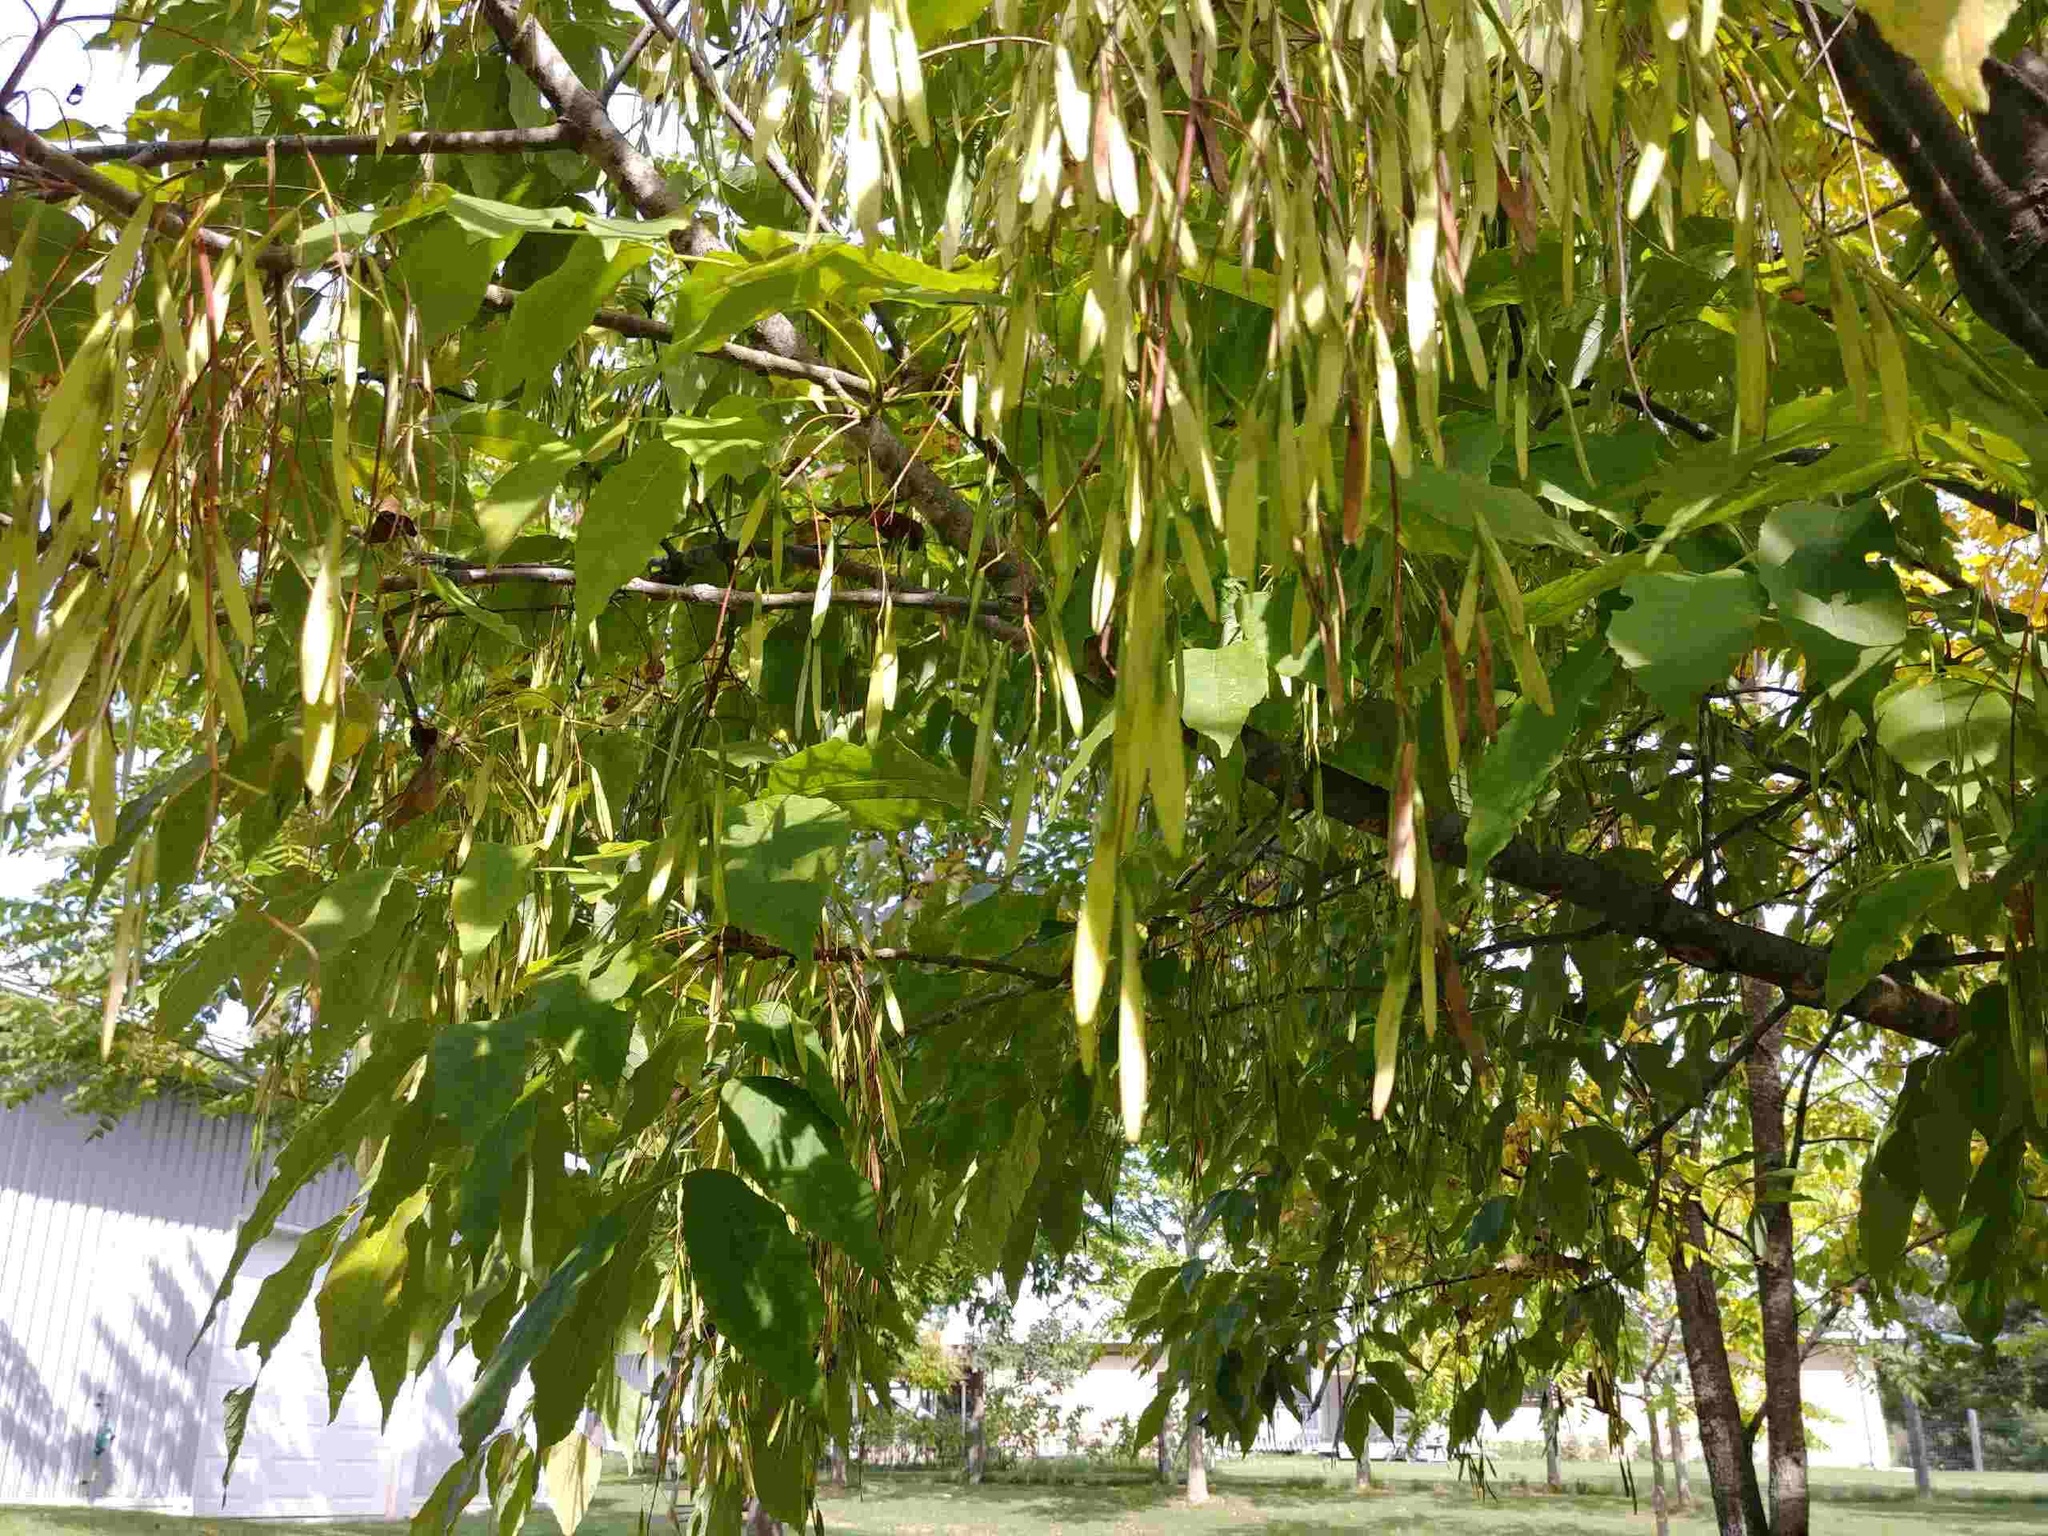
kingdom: Plantae
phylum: Tracheophyta
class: Magnoliopsida
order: Lamiales
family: Oleaceae
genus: Fraxinus
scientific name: Fraxinus pennsylvanica
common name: Green ash
